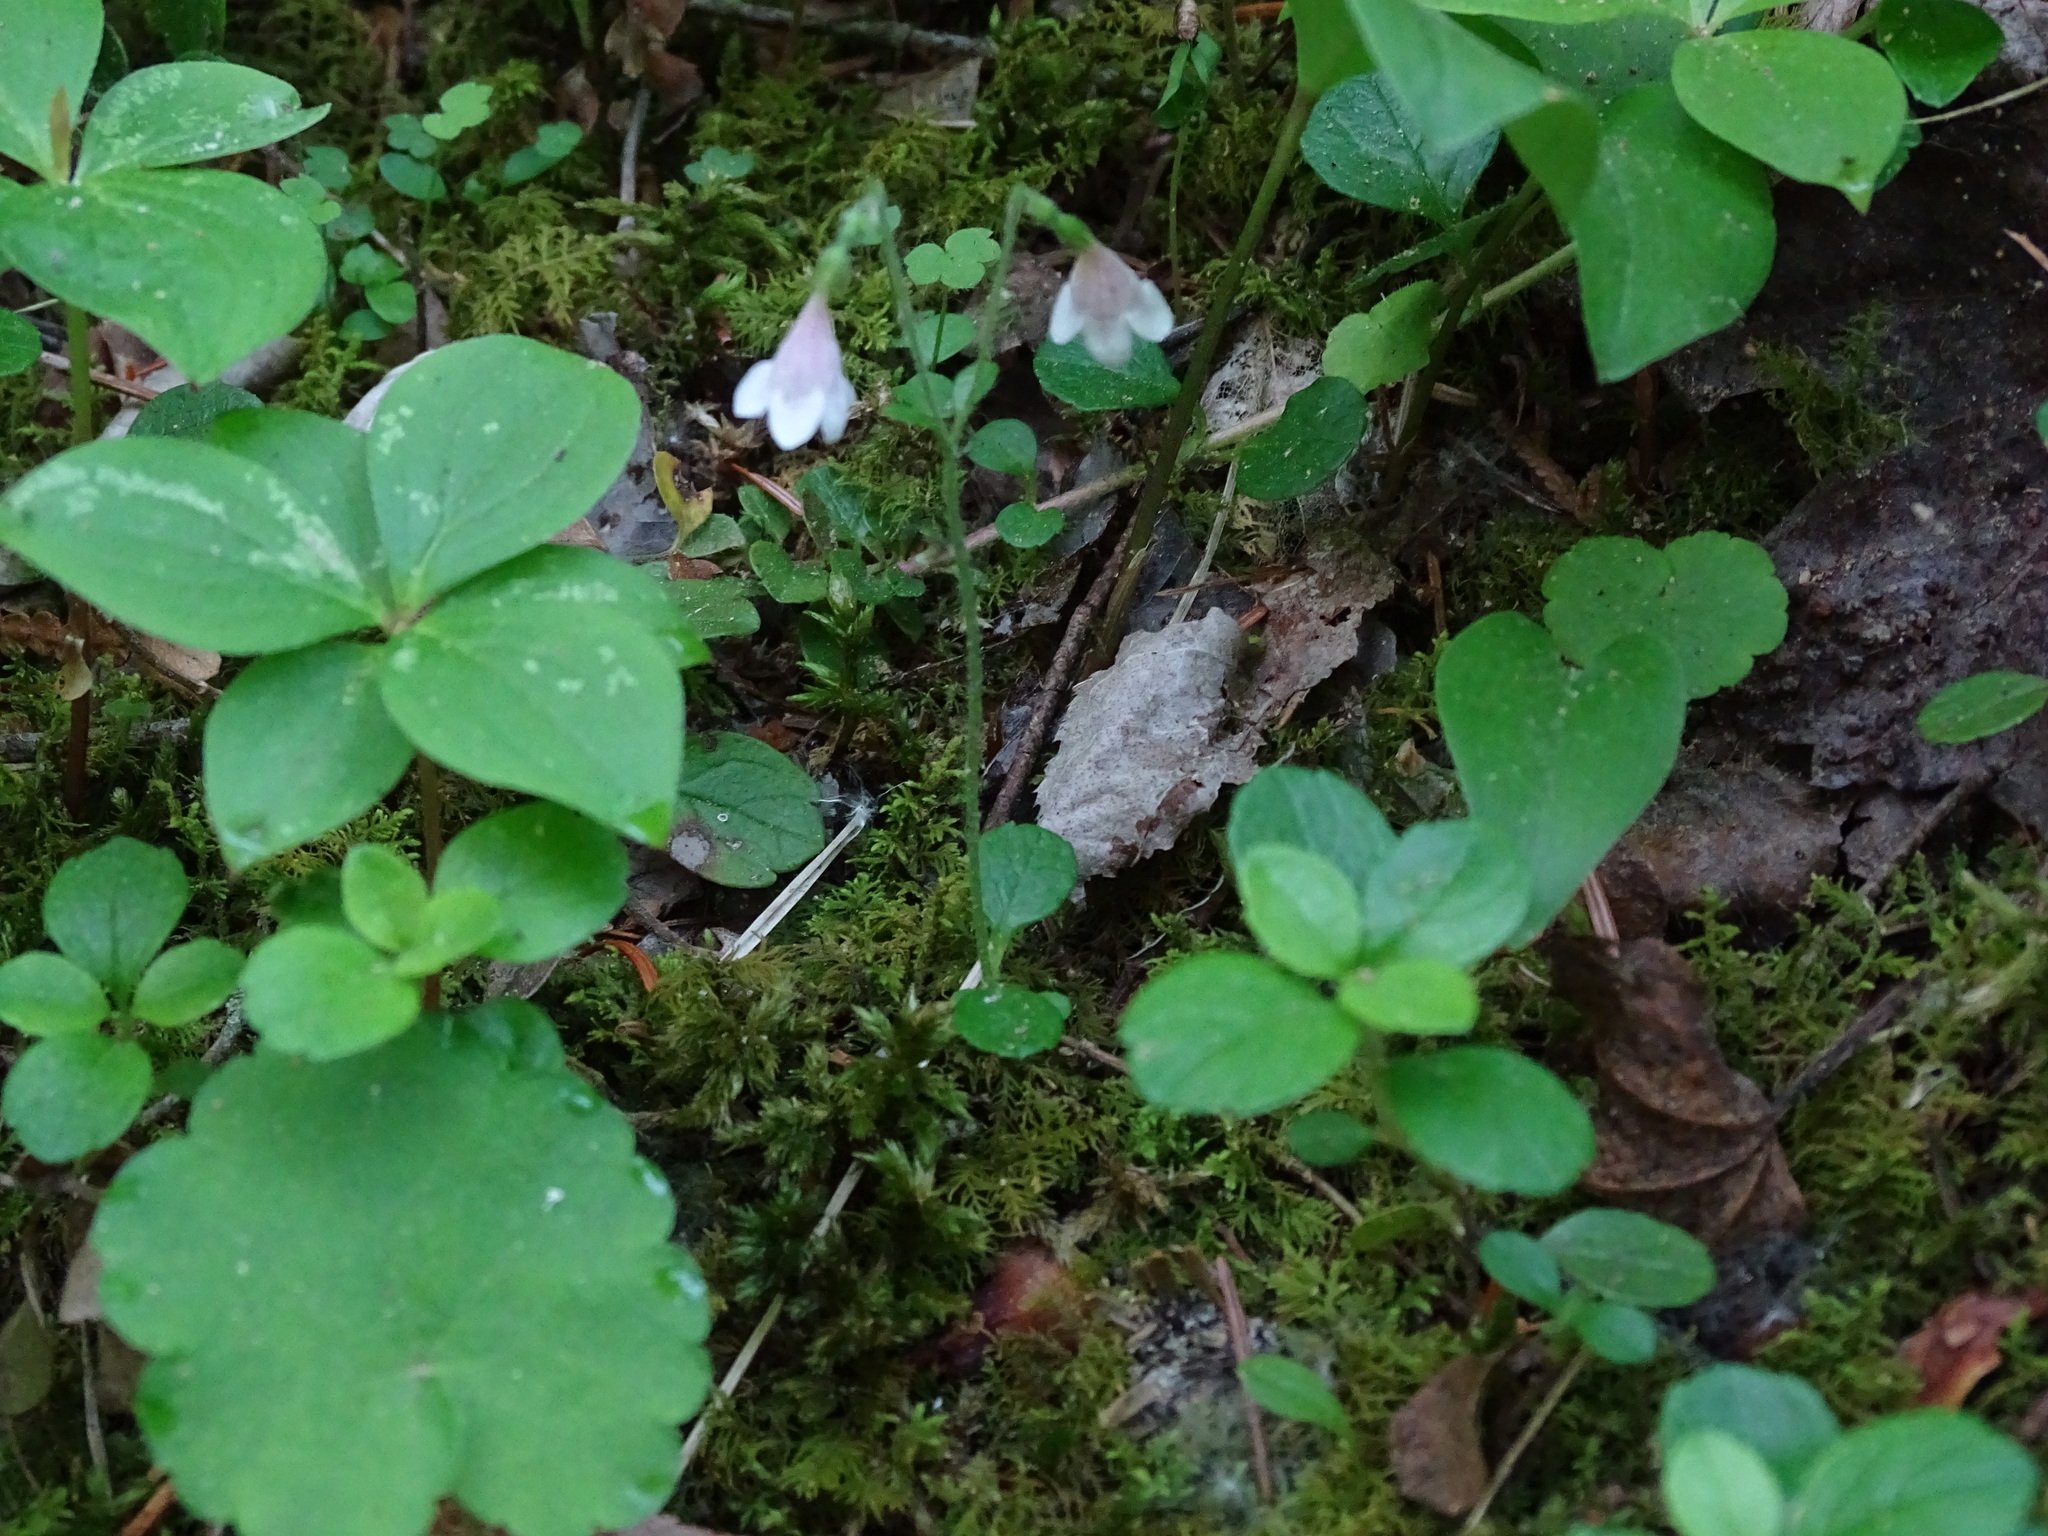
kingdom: Plantae
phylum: Tracheophyta
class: Magnoliopsida
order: Dipsacales
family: Caprifoliaceae
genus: Linnaea
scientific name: Linnaea borealis
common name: Twinflower
